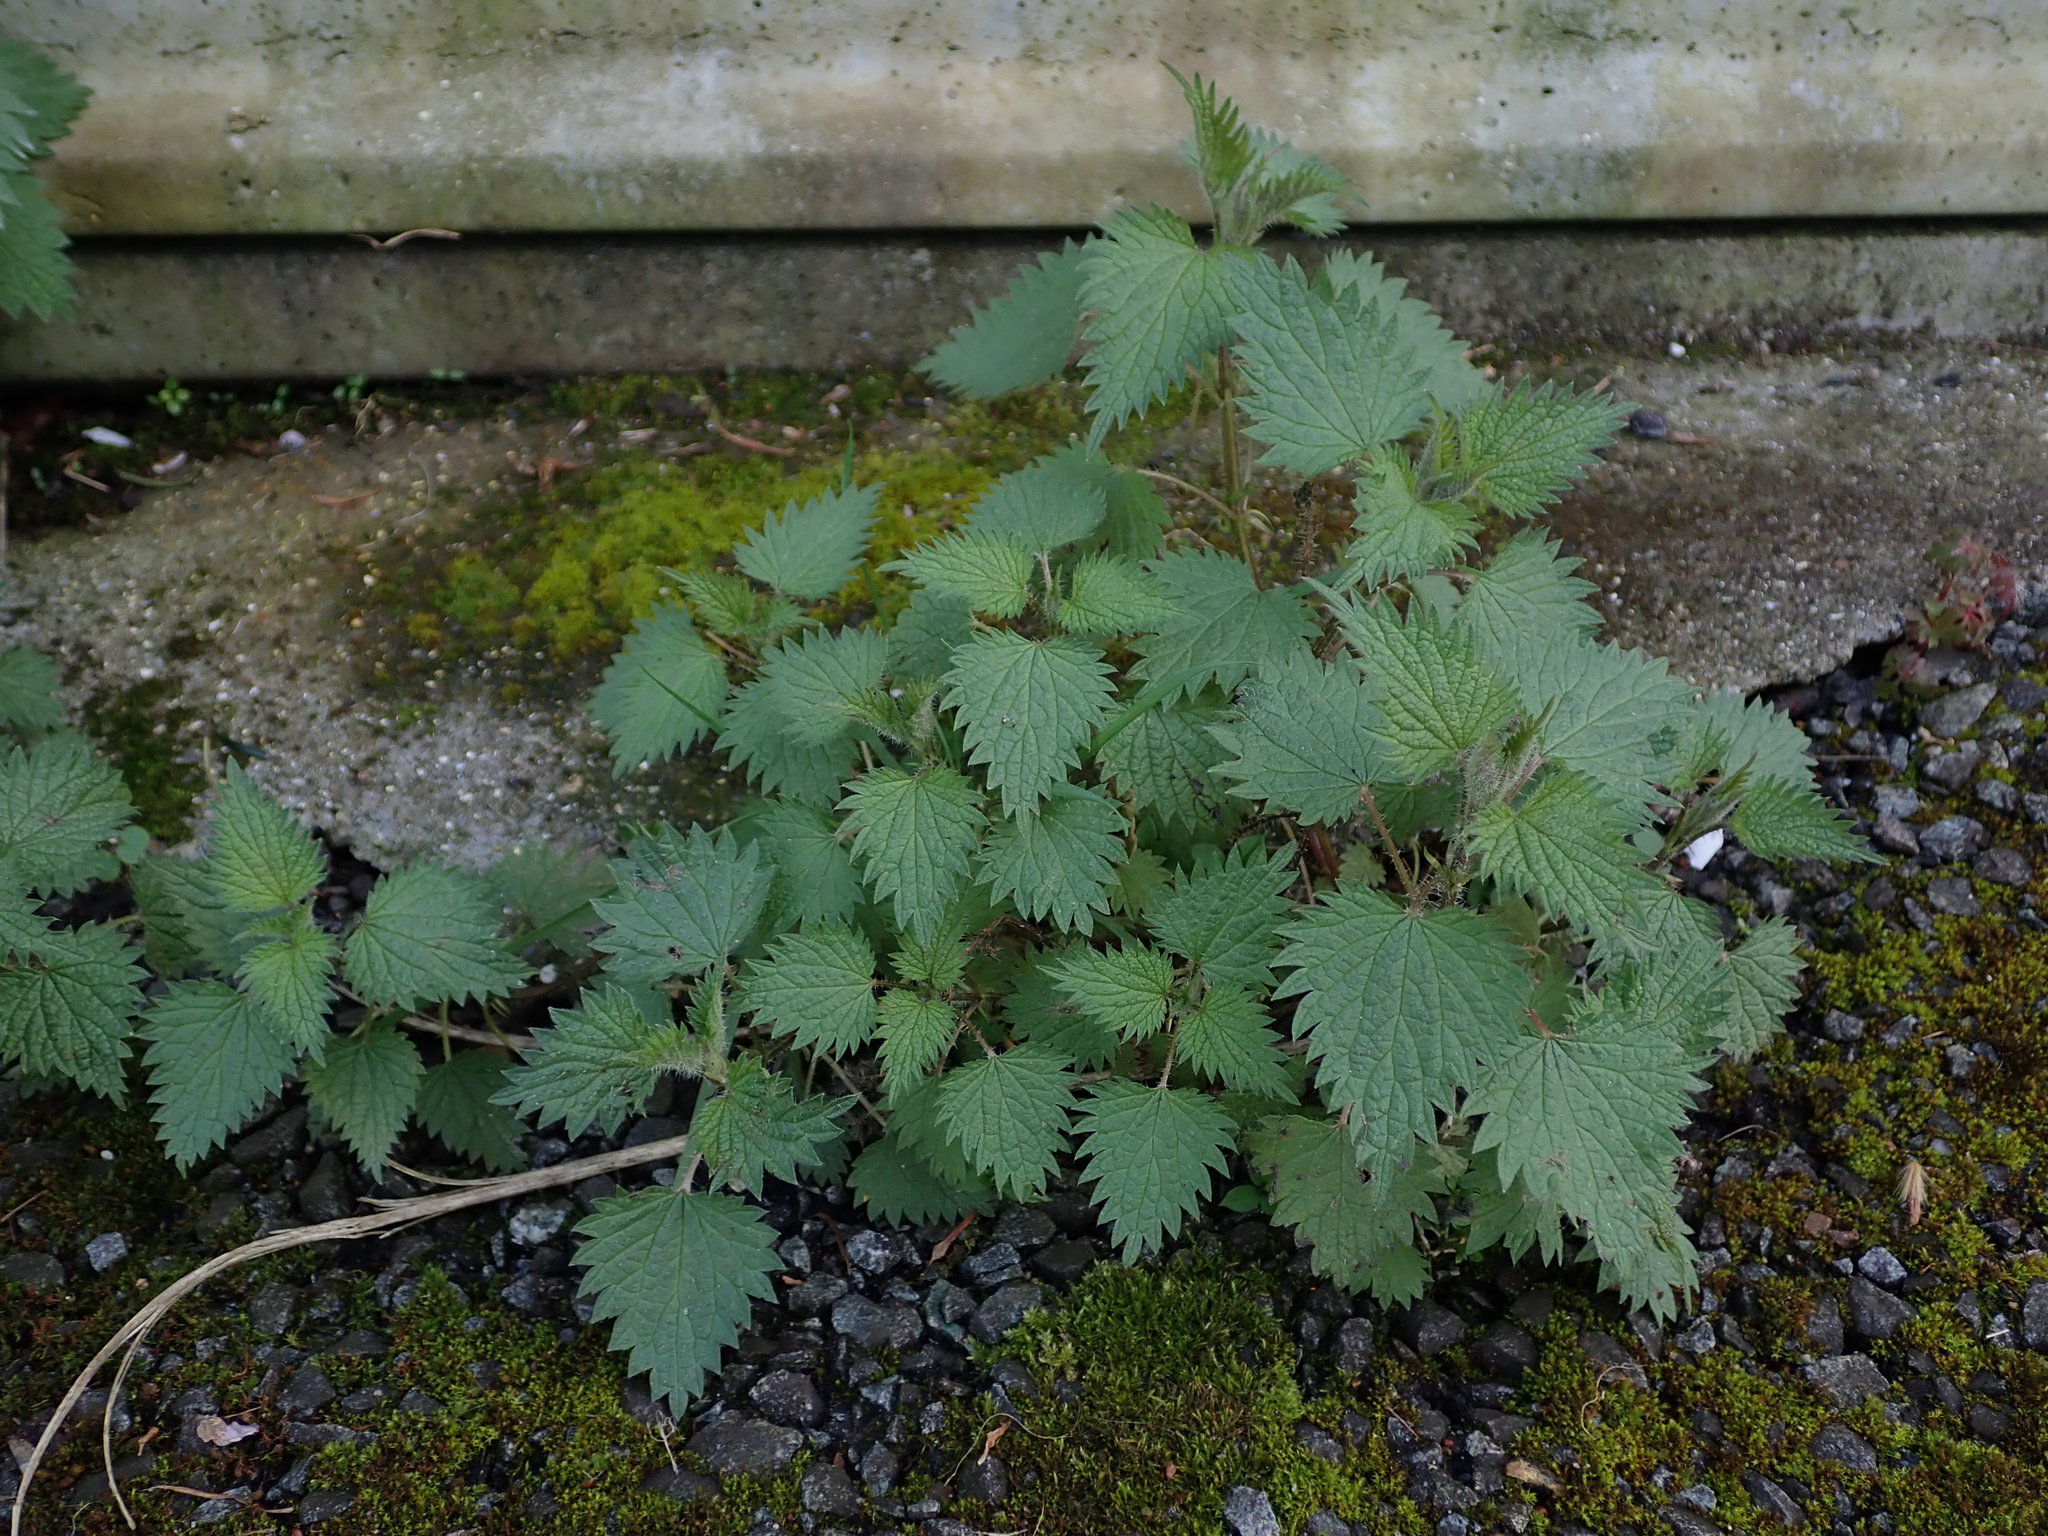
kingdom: Plantae
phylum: Tracheophyta
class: Magnoliopsida
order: Rosales
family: Urticaceae
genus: Urtica
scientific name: Urtica dioica
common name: Common nettle
